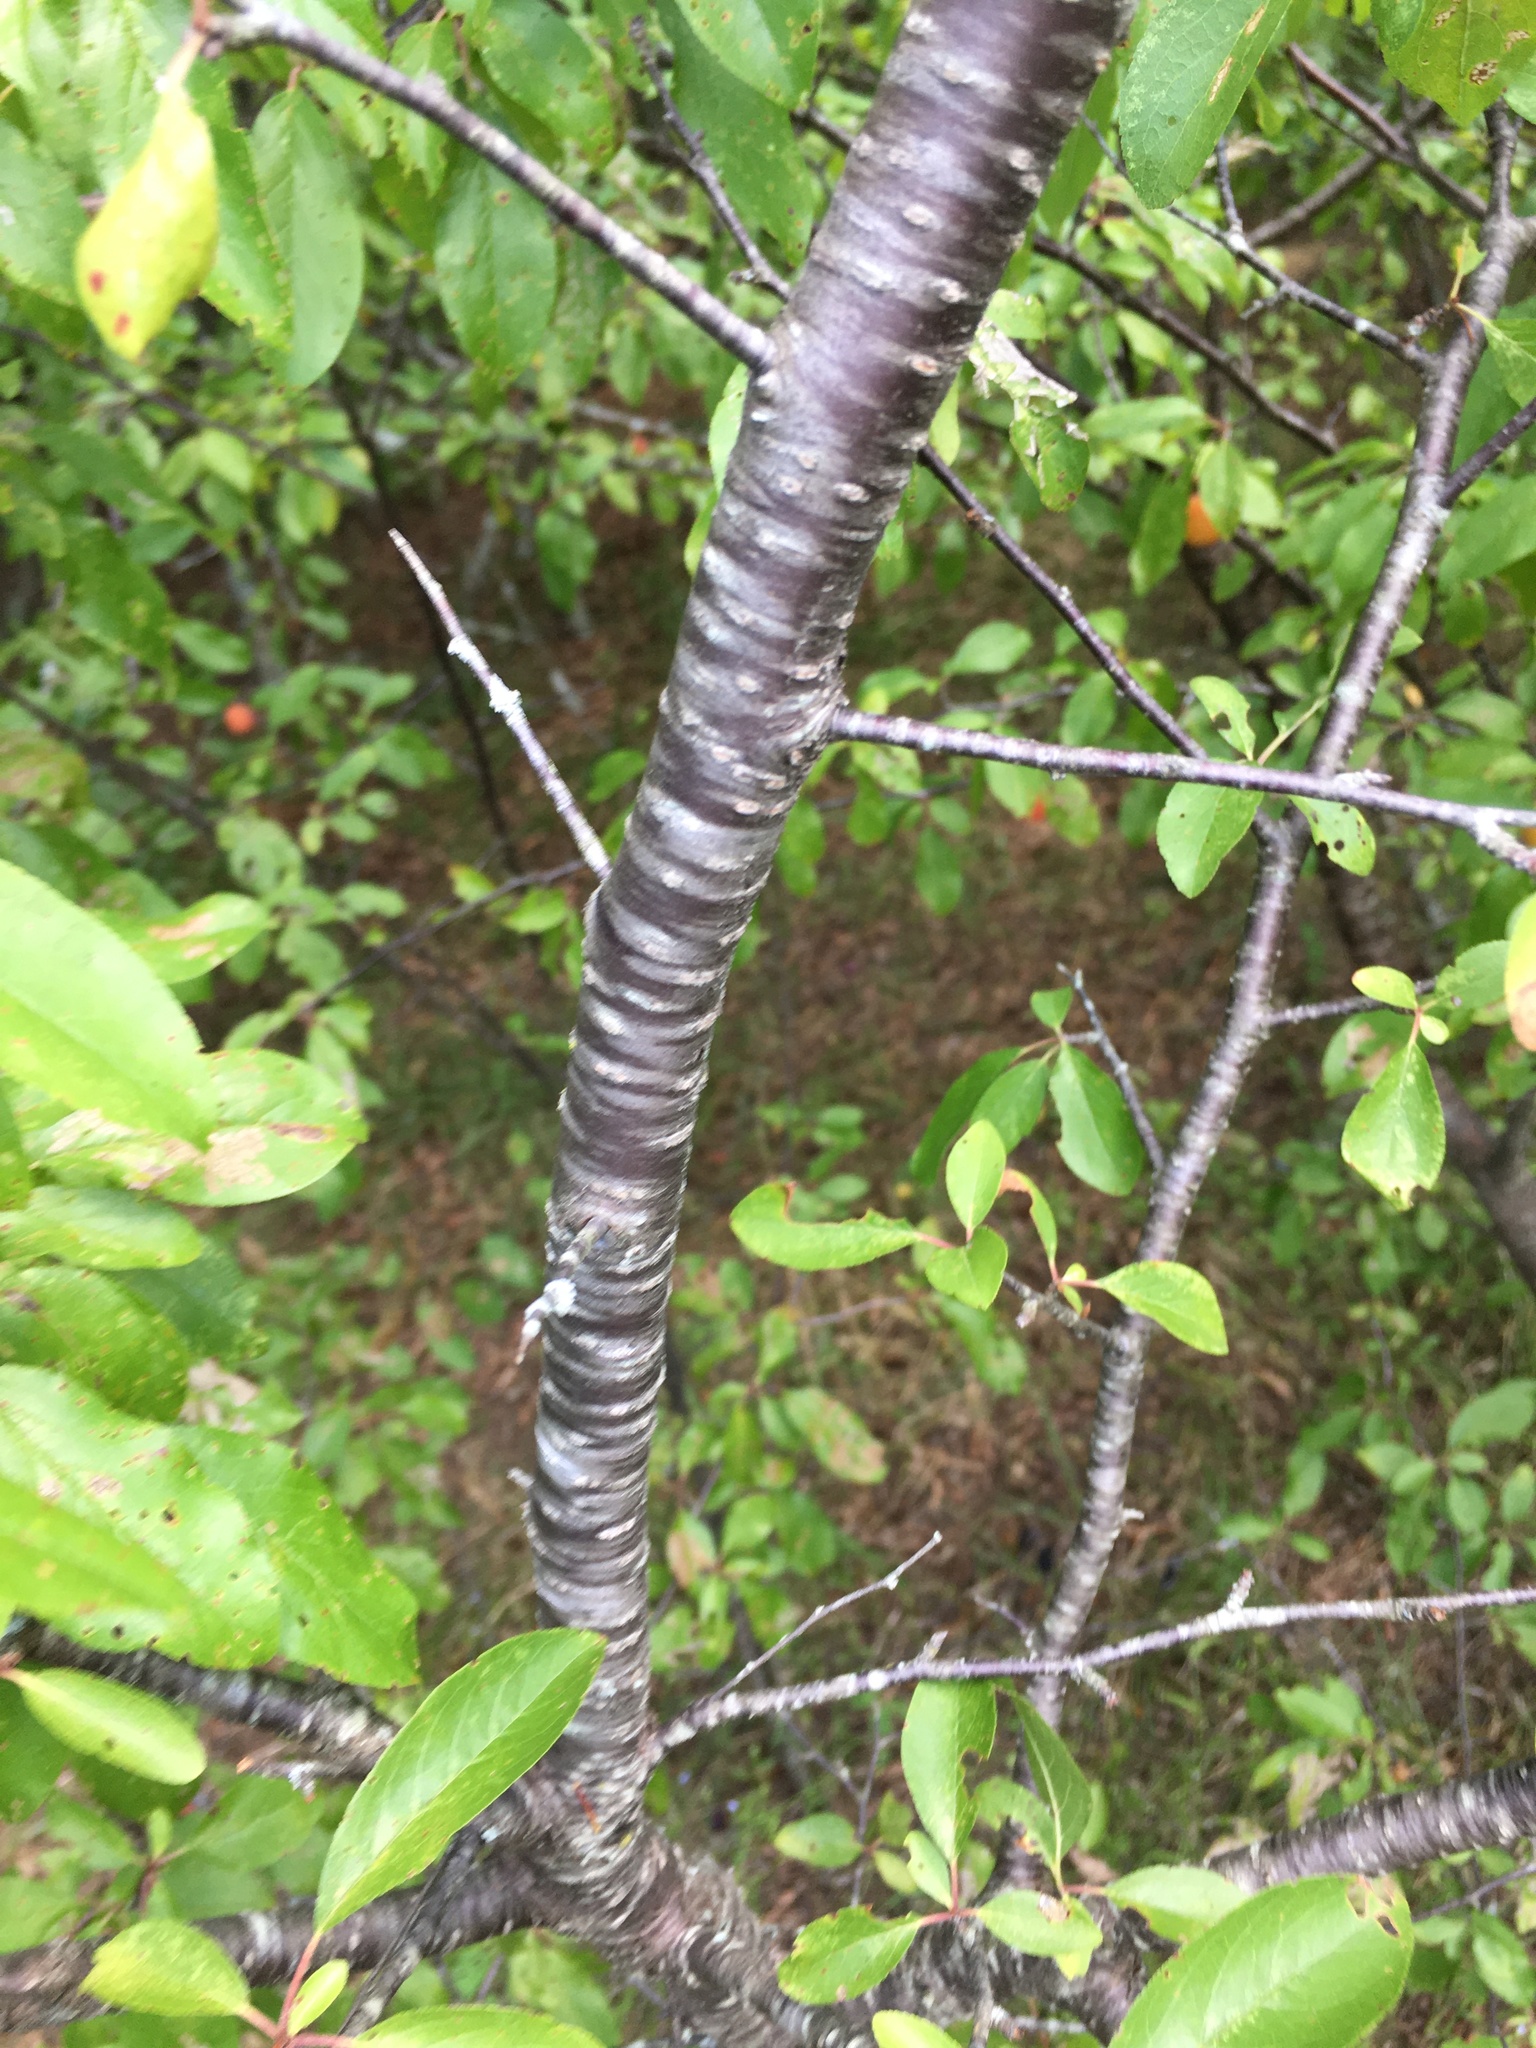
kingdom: Plantae
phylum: Tracheophyta
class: Magnoliopsida
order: Rosales
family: Rosaceae
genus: Prunus
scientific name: Prunus angustifolia
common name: Cherokee plum
